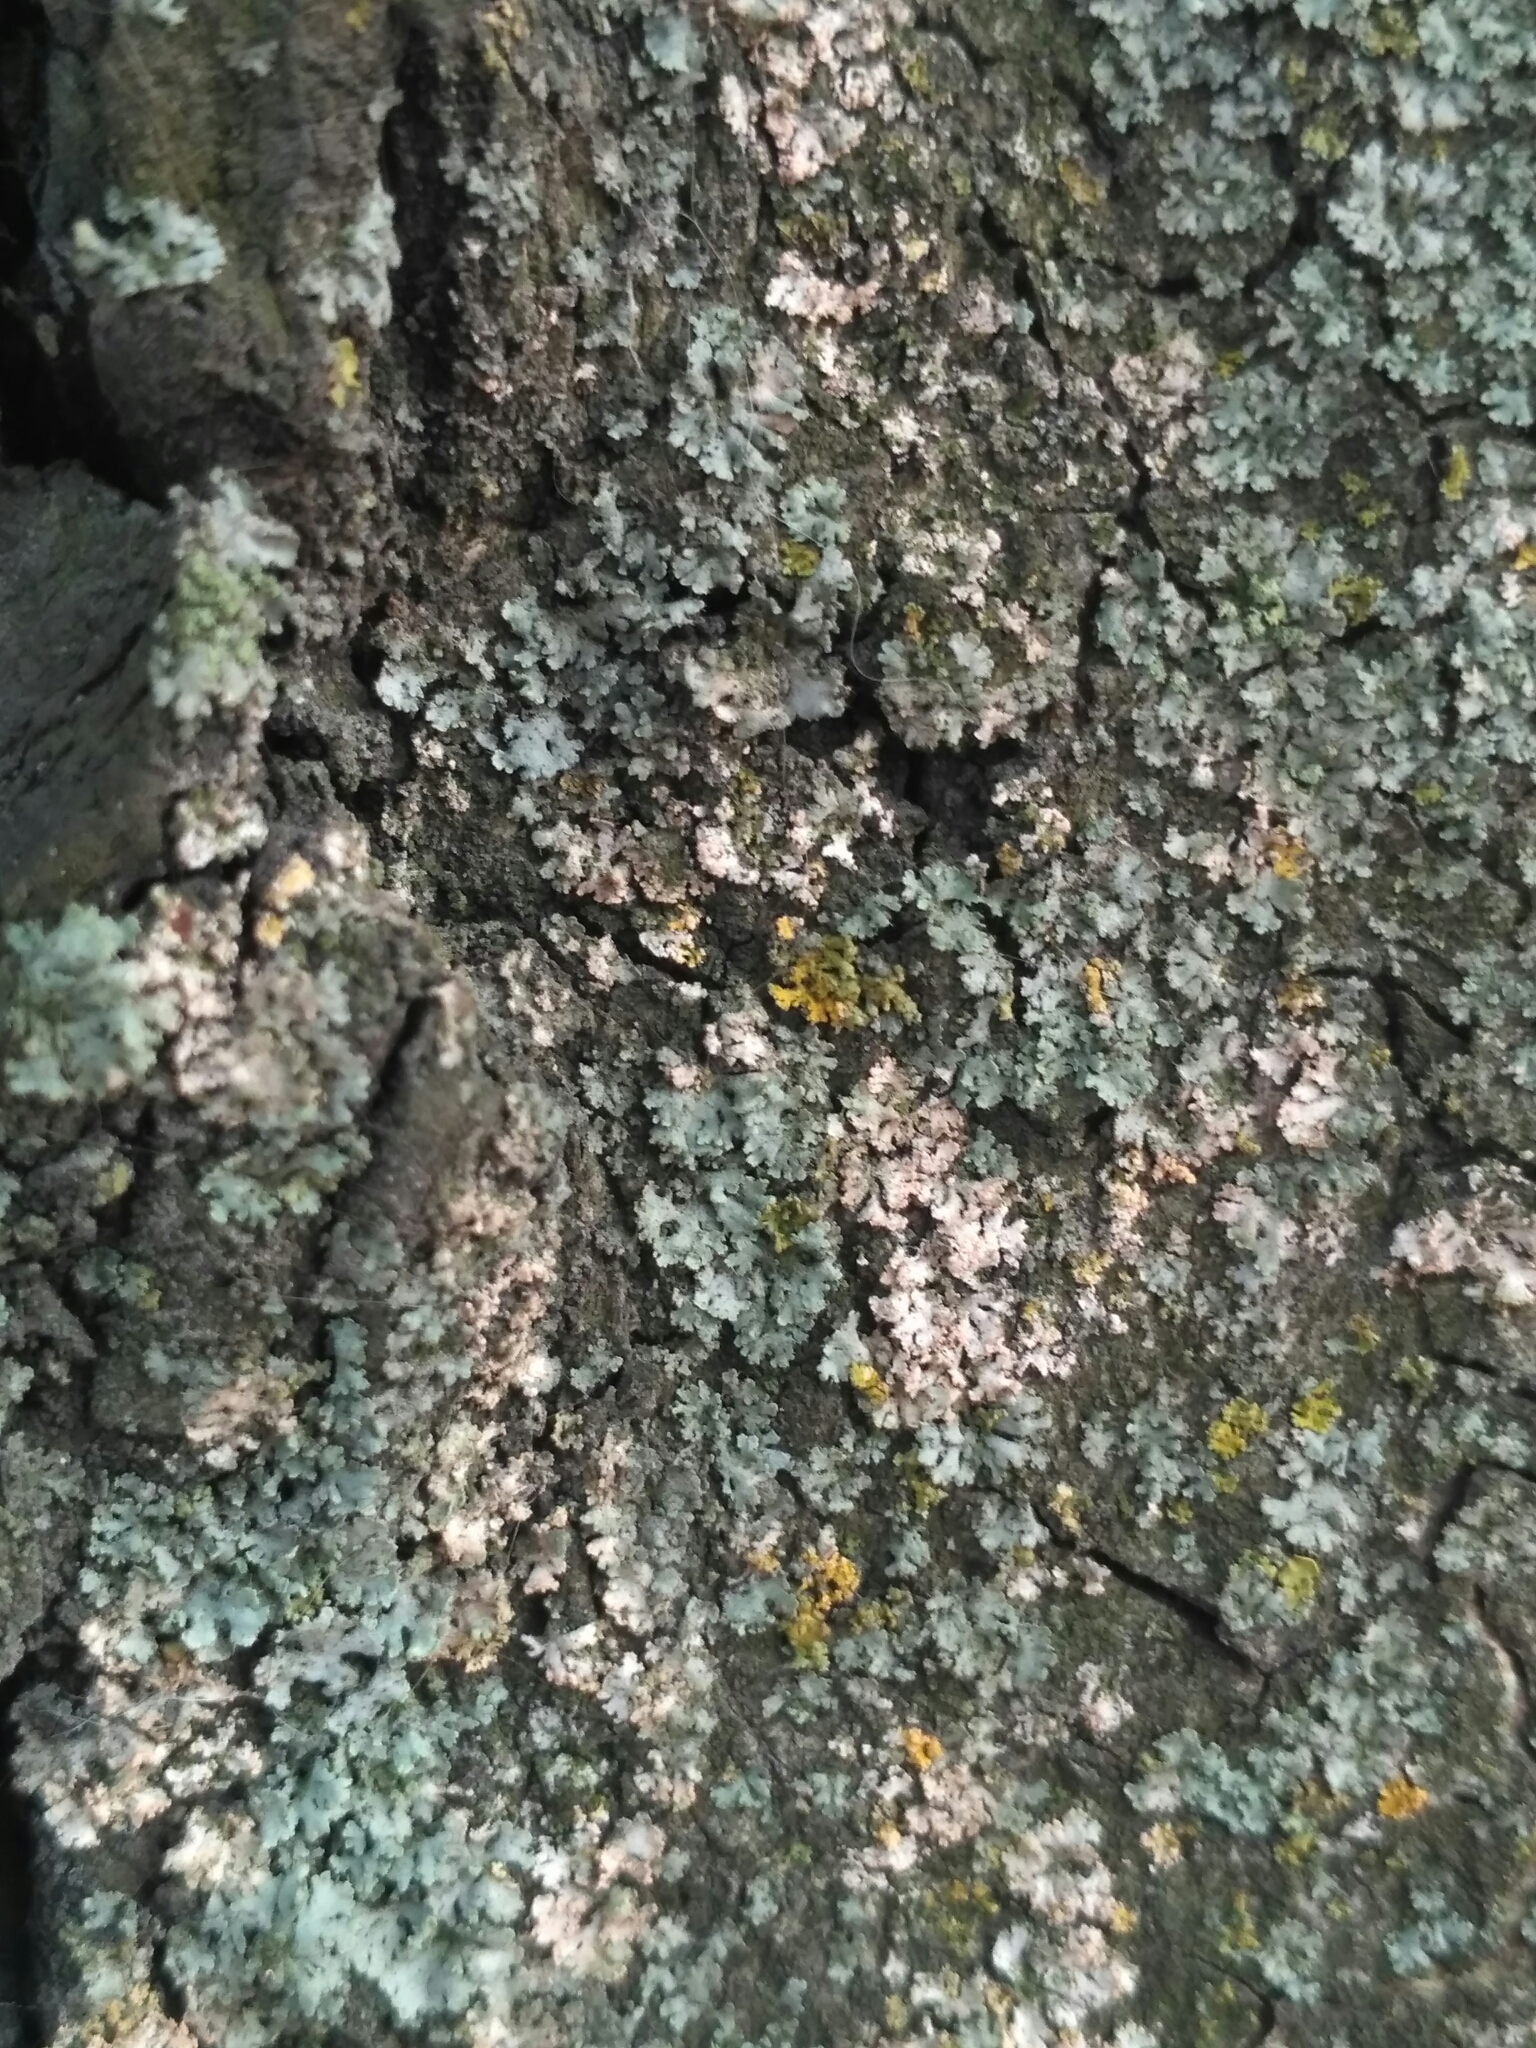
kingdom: Fungi
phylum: Basidiomycota
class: Agaricomycetes
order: Corticiales
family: Corticiaceae
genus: Erythricium
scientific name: Erythricium aurantiacum
